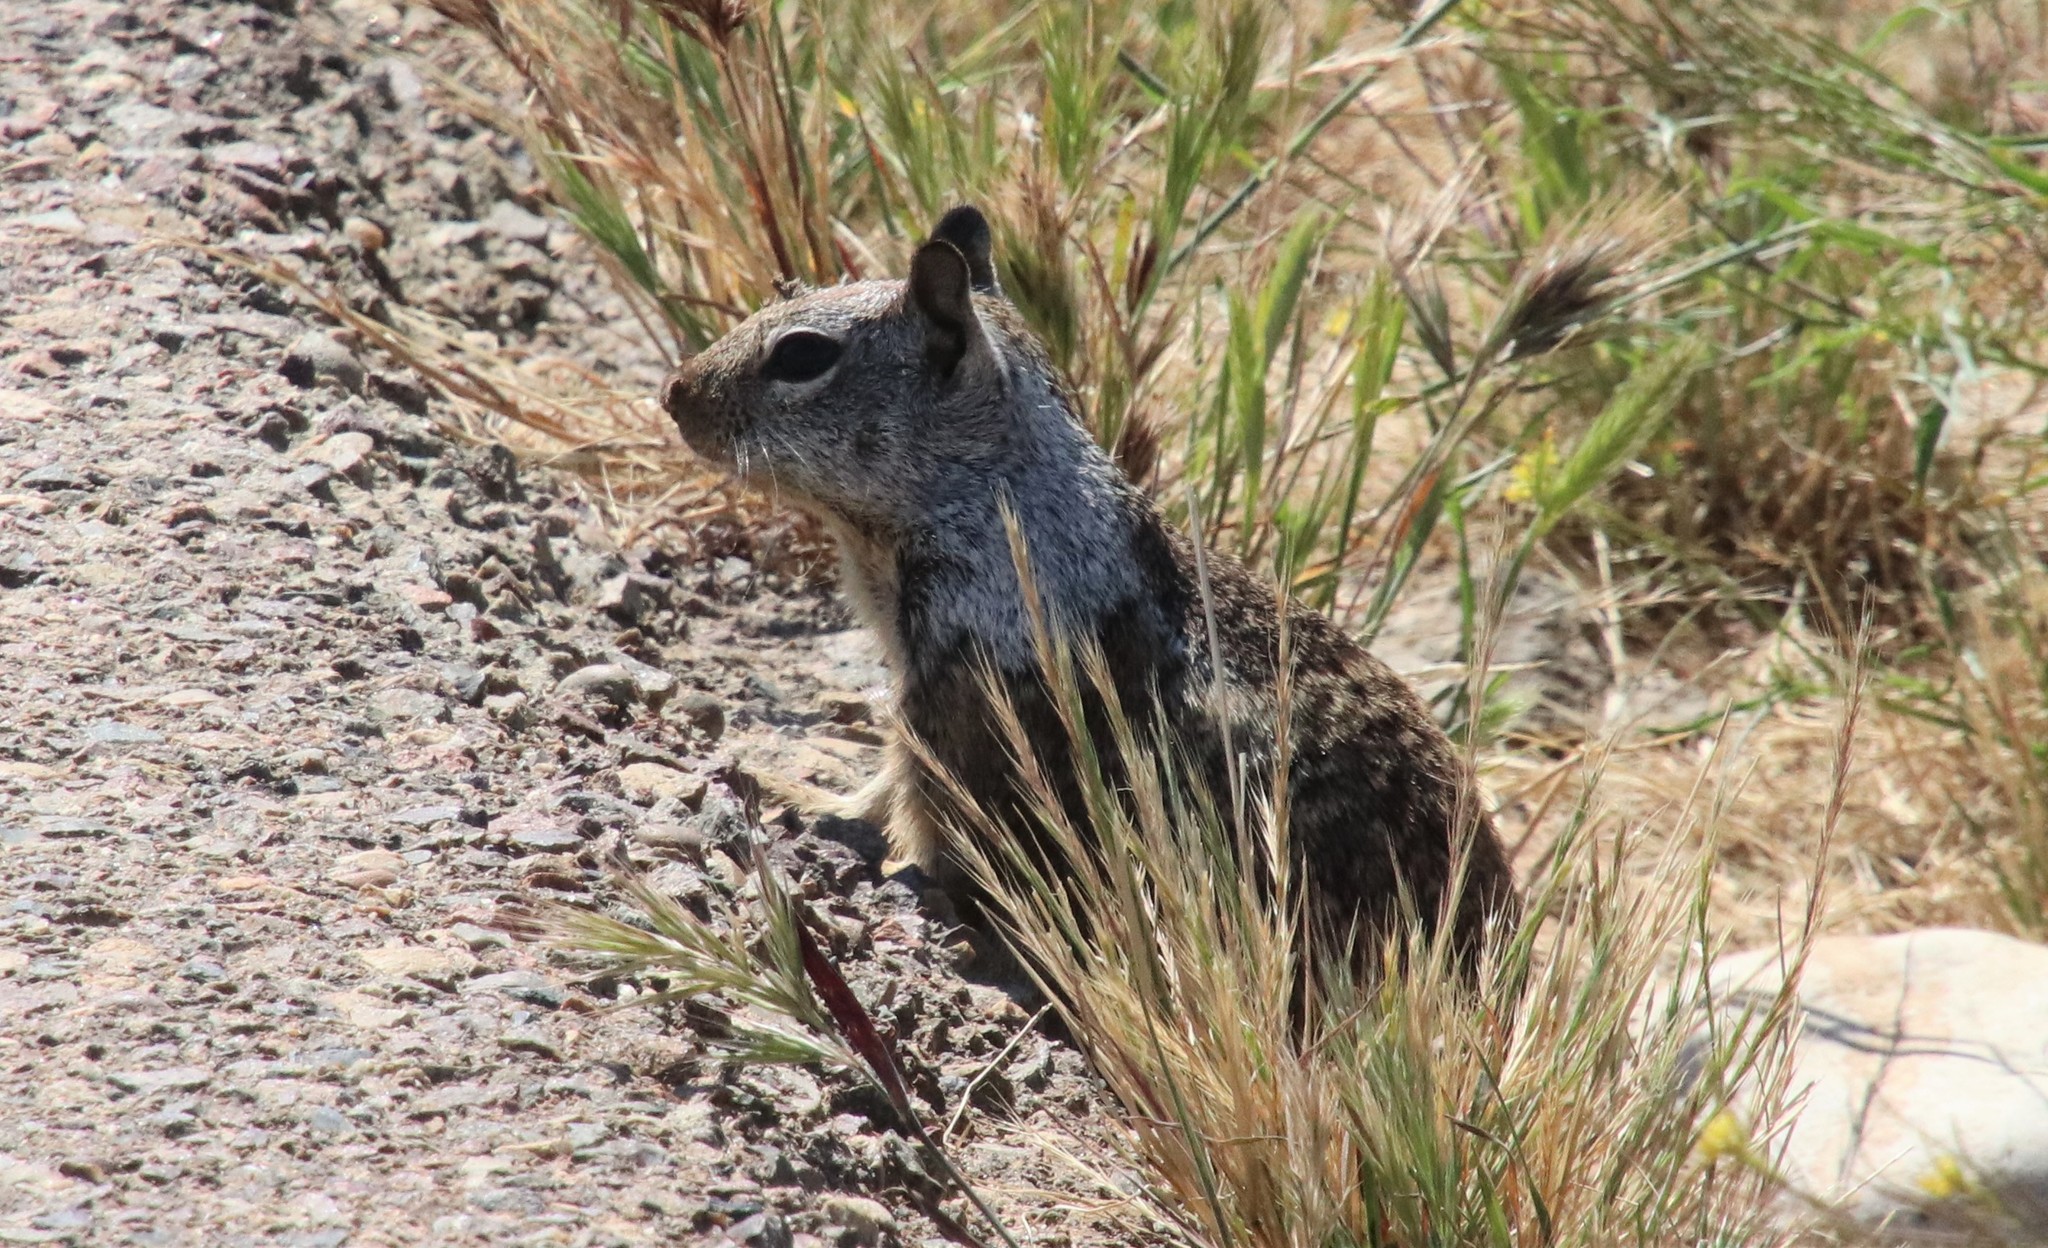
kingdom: Animalia
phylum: Chordata
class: Mammalia
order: Rodentia
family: Sciuridae
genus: Otospermophilus
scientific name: Otospermophilus beecheyi
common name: California ground squirrel
